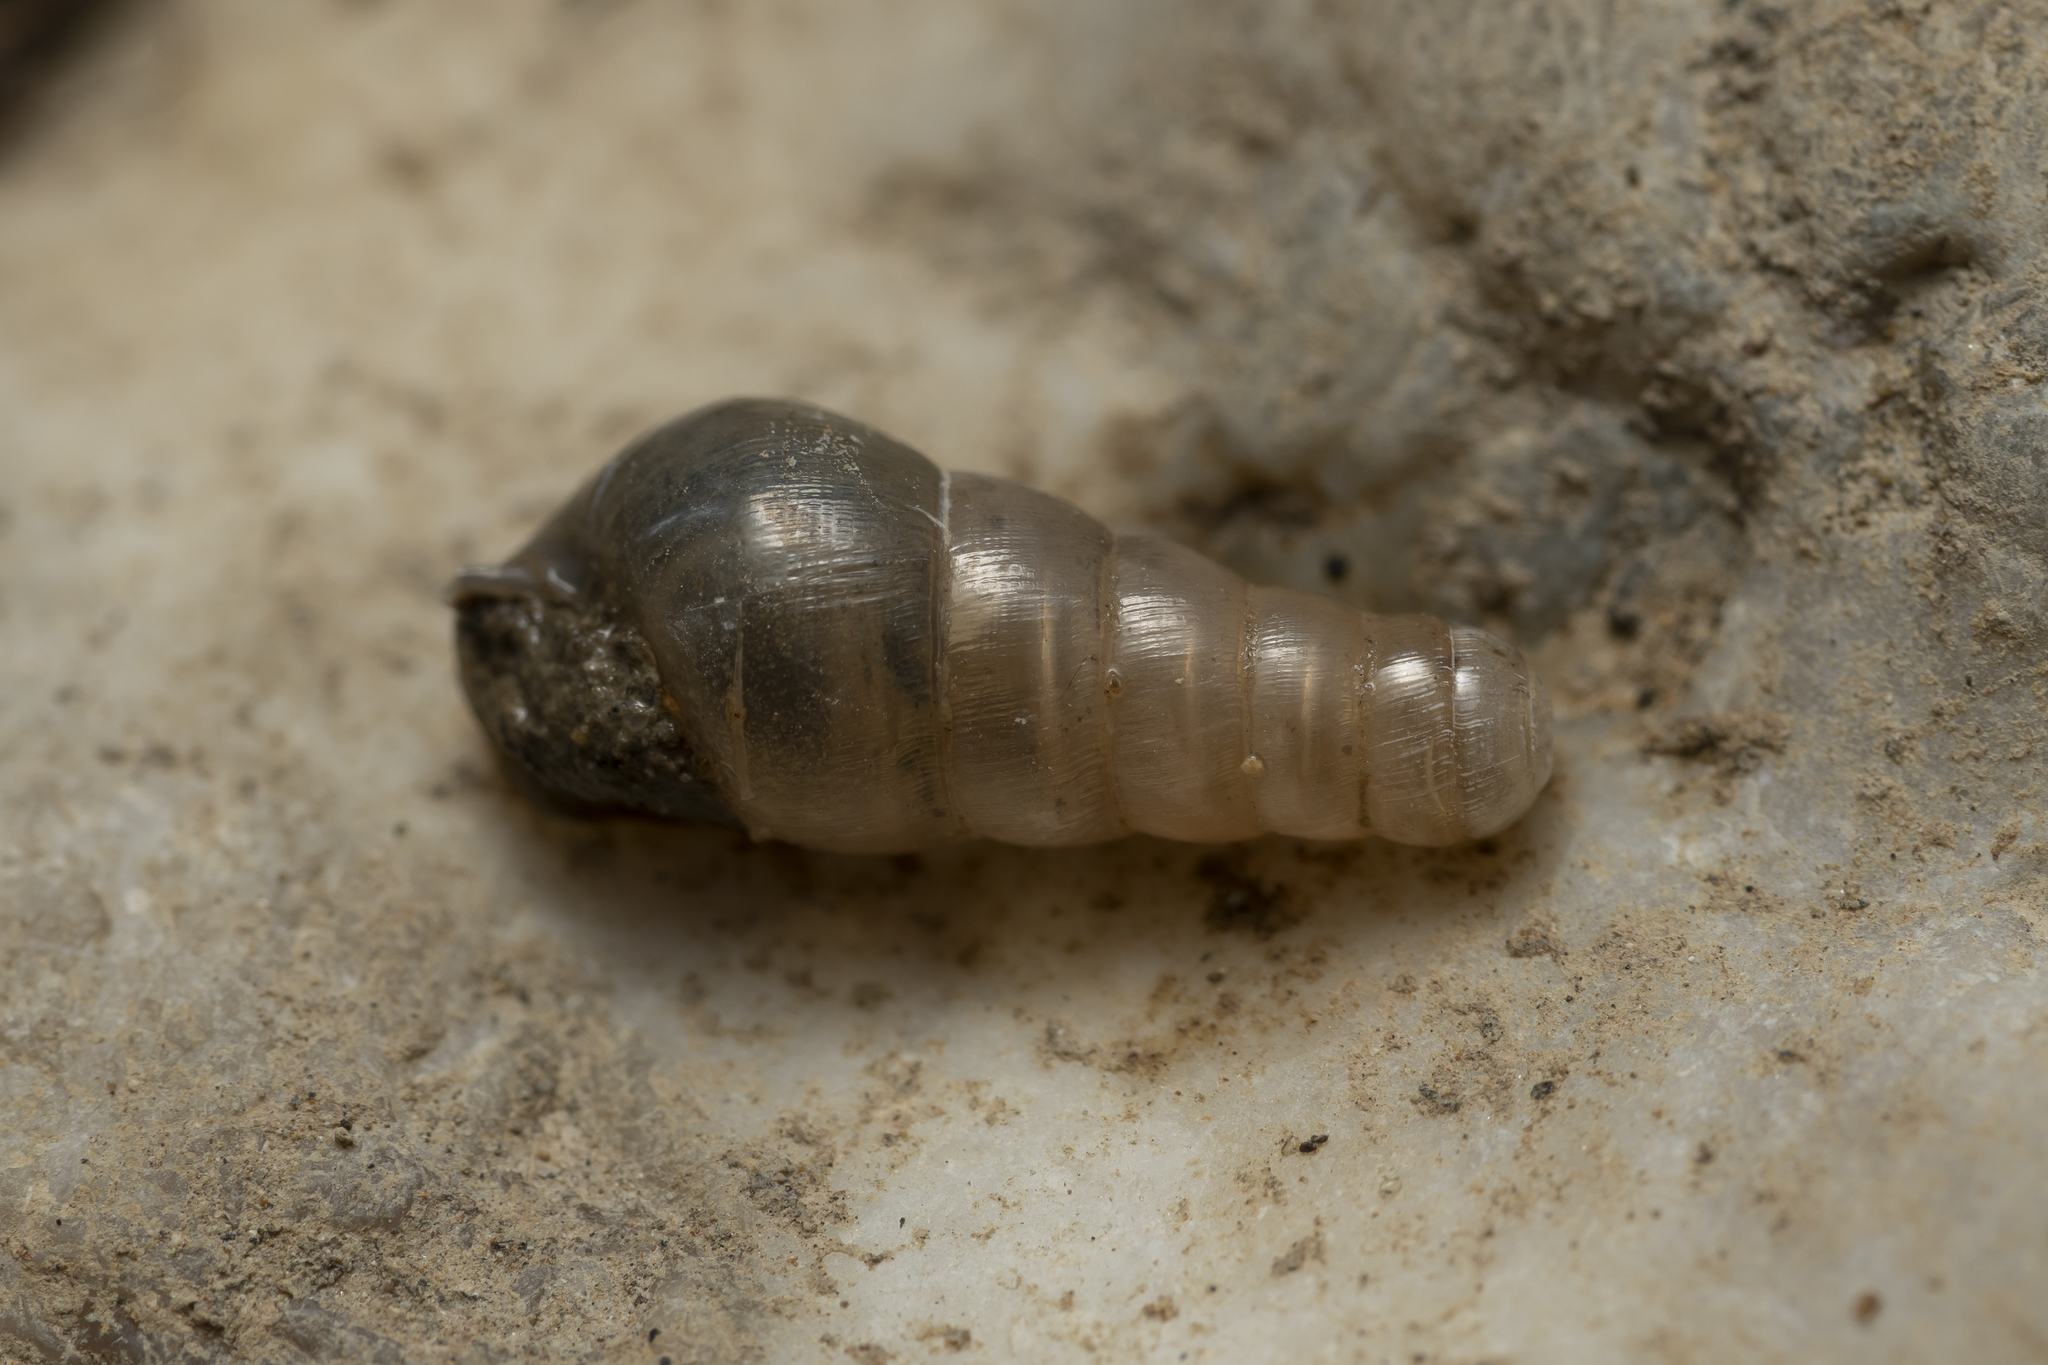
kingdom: Animalia
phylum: Mollusca
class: Gastropoda
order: Stylommatophora
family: Achatinidae
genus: Rumina
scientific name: Rumina
